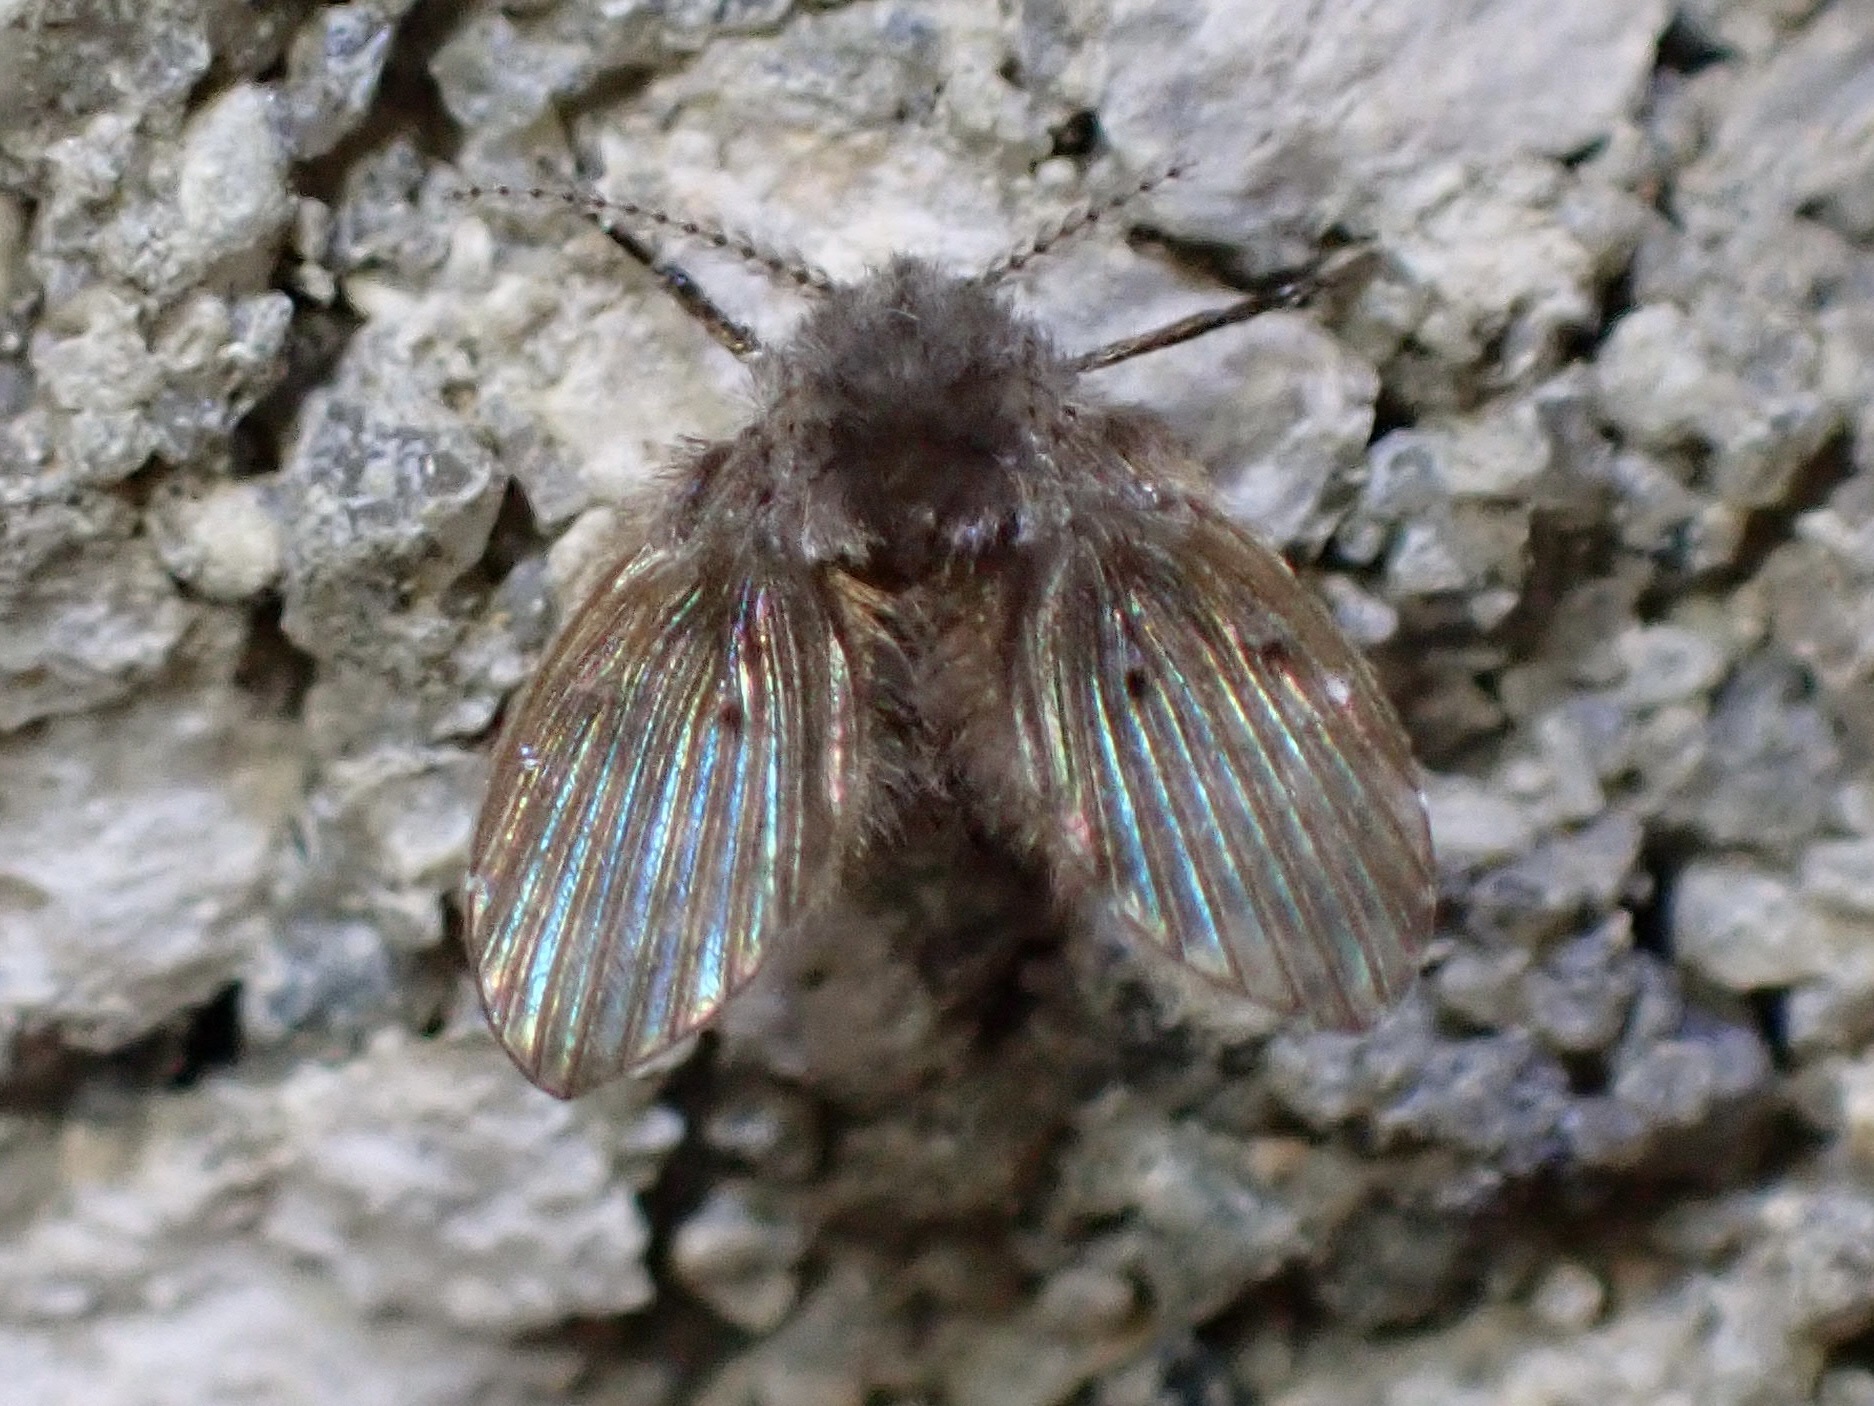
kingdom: Animalia
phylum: Arthropoda
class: Insecta
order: Diptera
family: Psychodidae
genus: Clogmia
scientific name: Clogmia albipunctatus
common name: White-spotted moth fly
